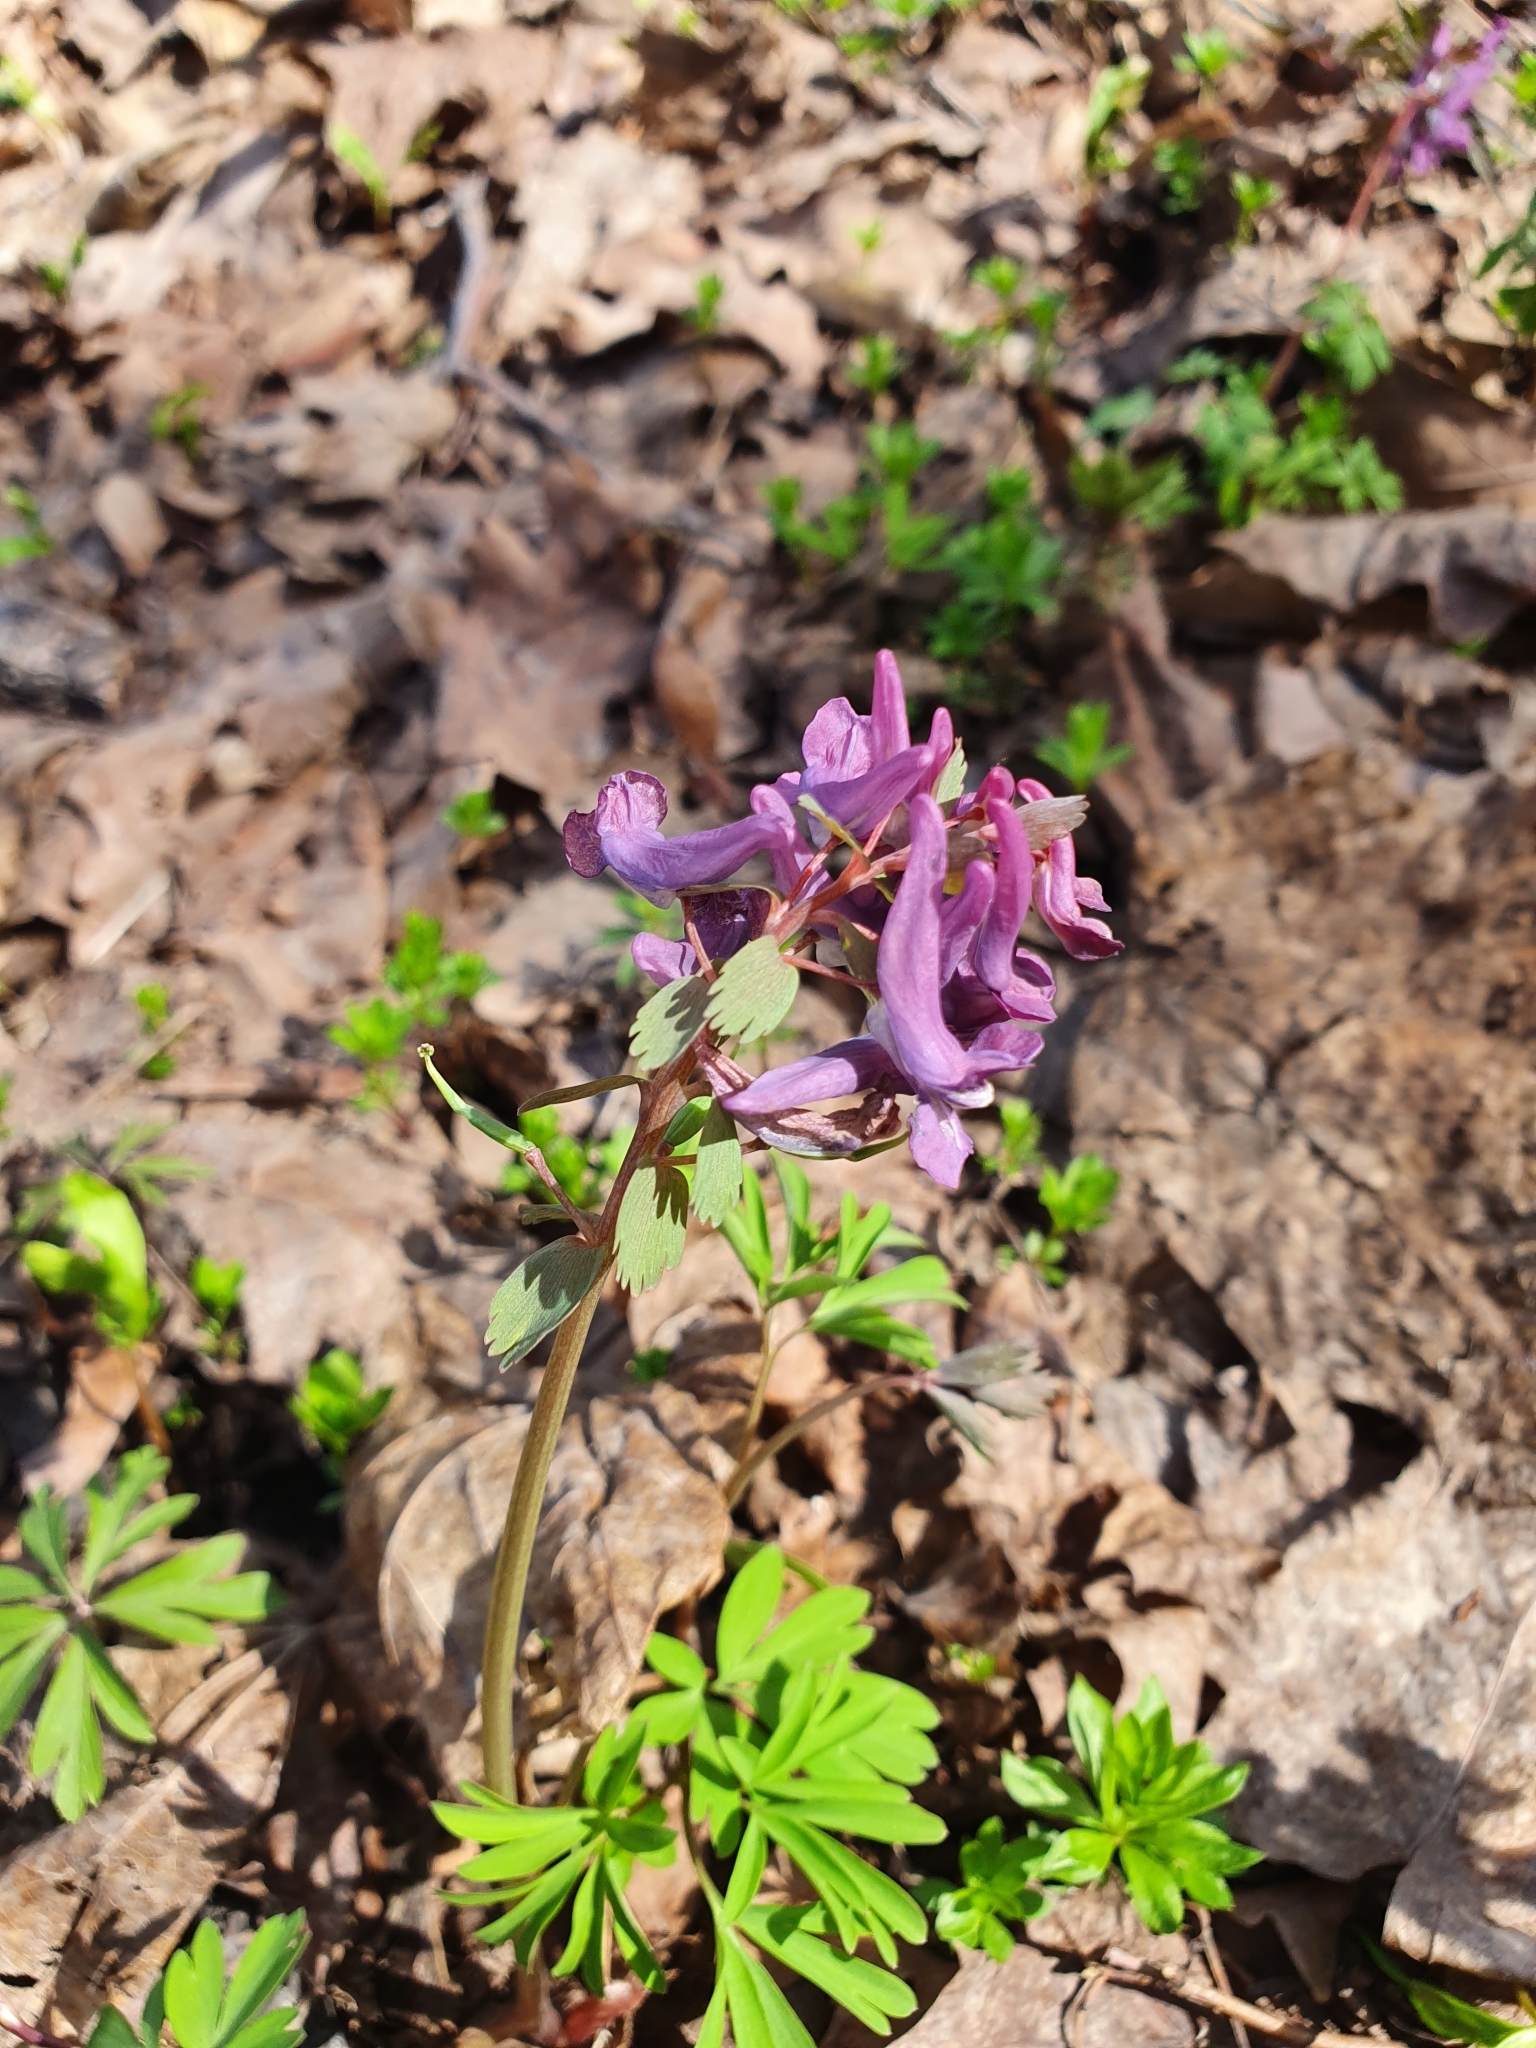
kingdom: Plantae
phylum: Tracheophyta
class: Magnoliopsida
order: Ranunculales
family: Papaveraceae
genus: Corydalis
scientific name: Corydalis solida
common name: Bird-in-a-bush
